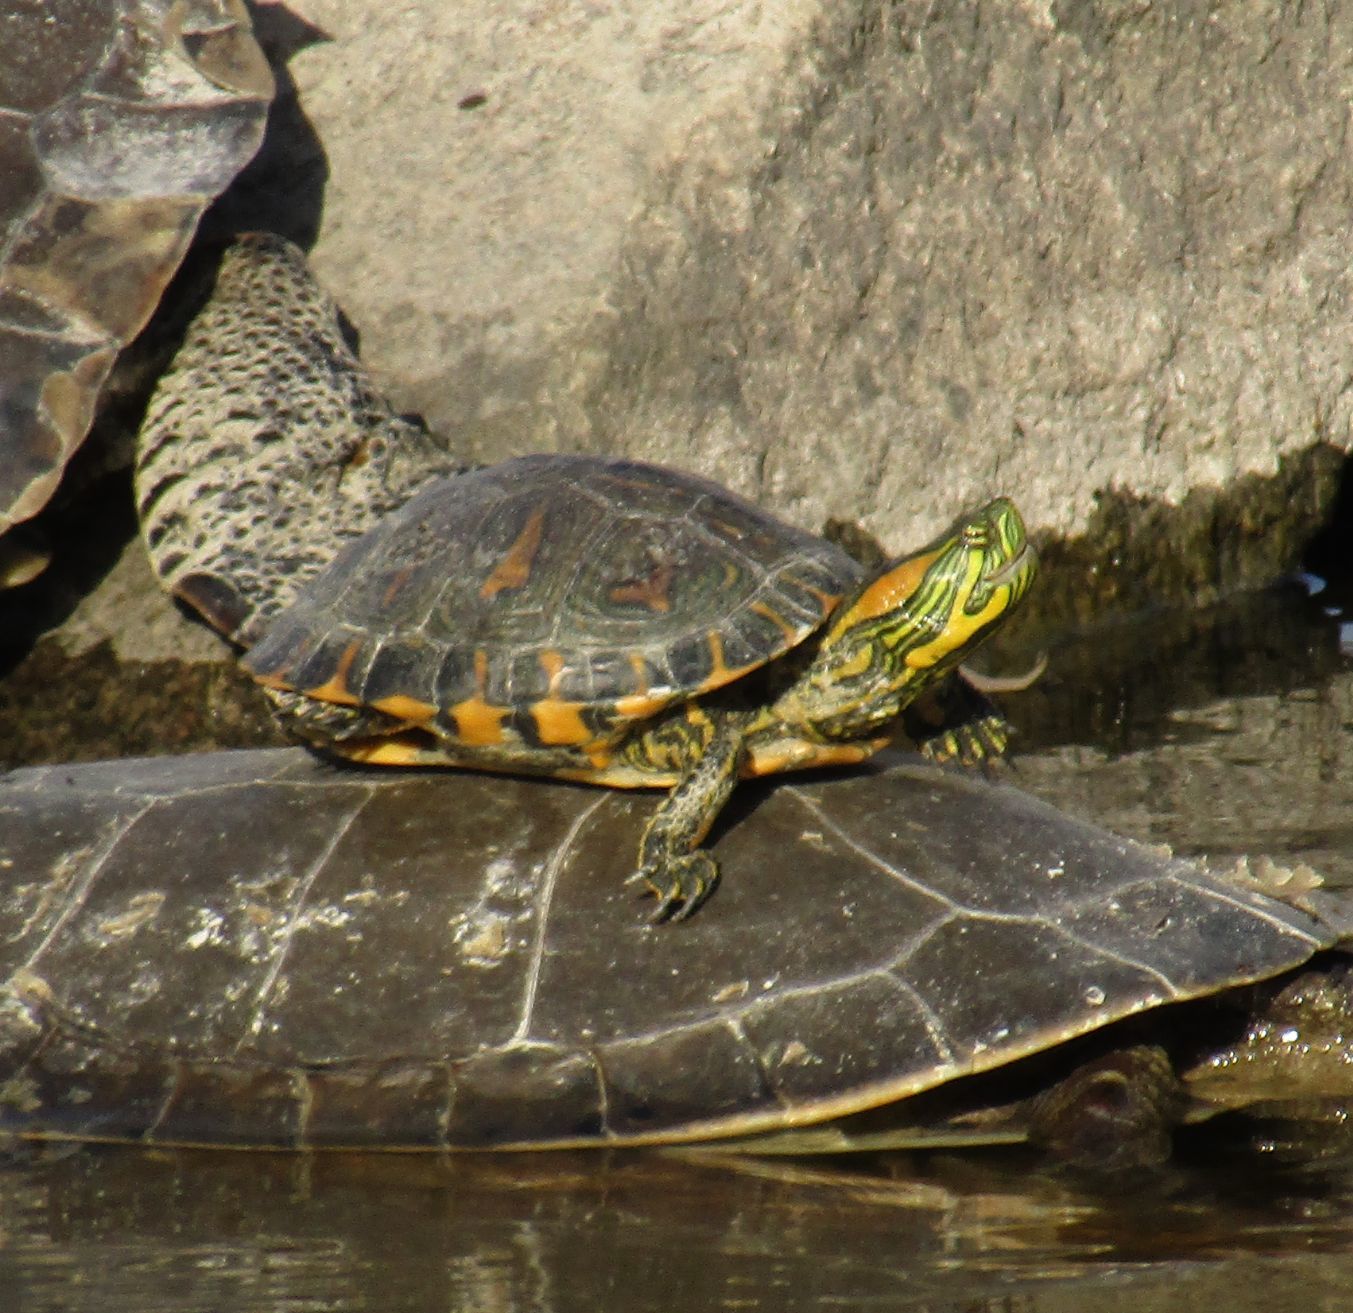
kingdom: Animalia
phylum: Chordata
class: Testudines
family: Emydidae
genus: Trachemys
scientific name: Trachemys dorbigni
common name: Black-bellied slider
